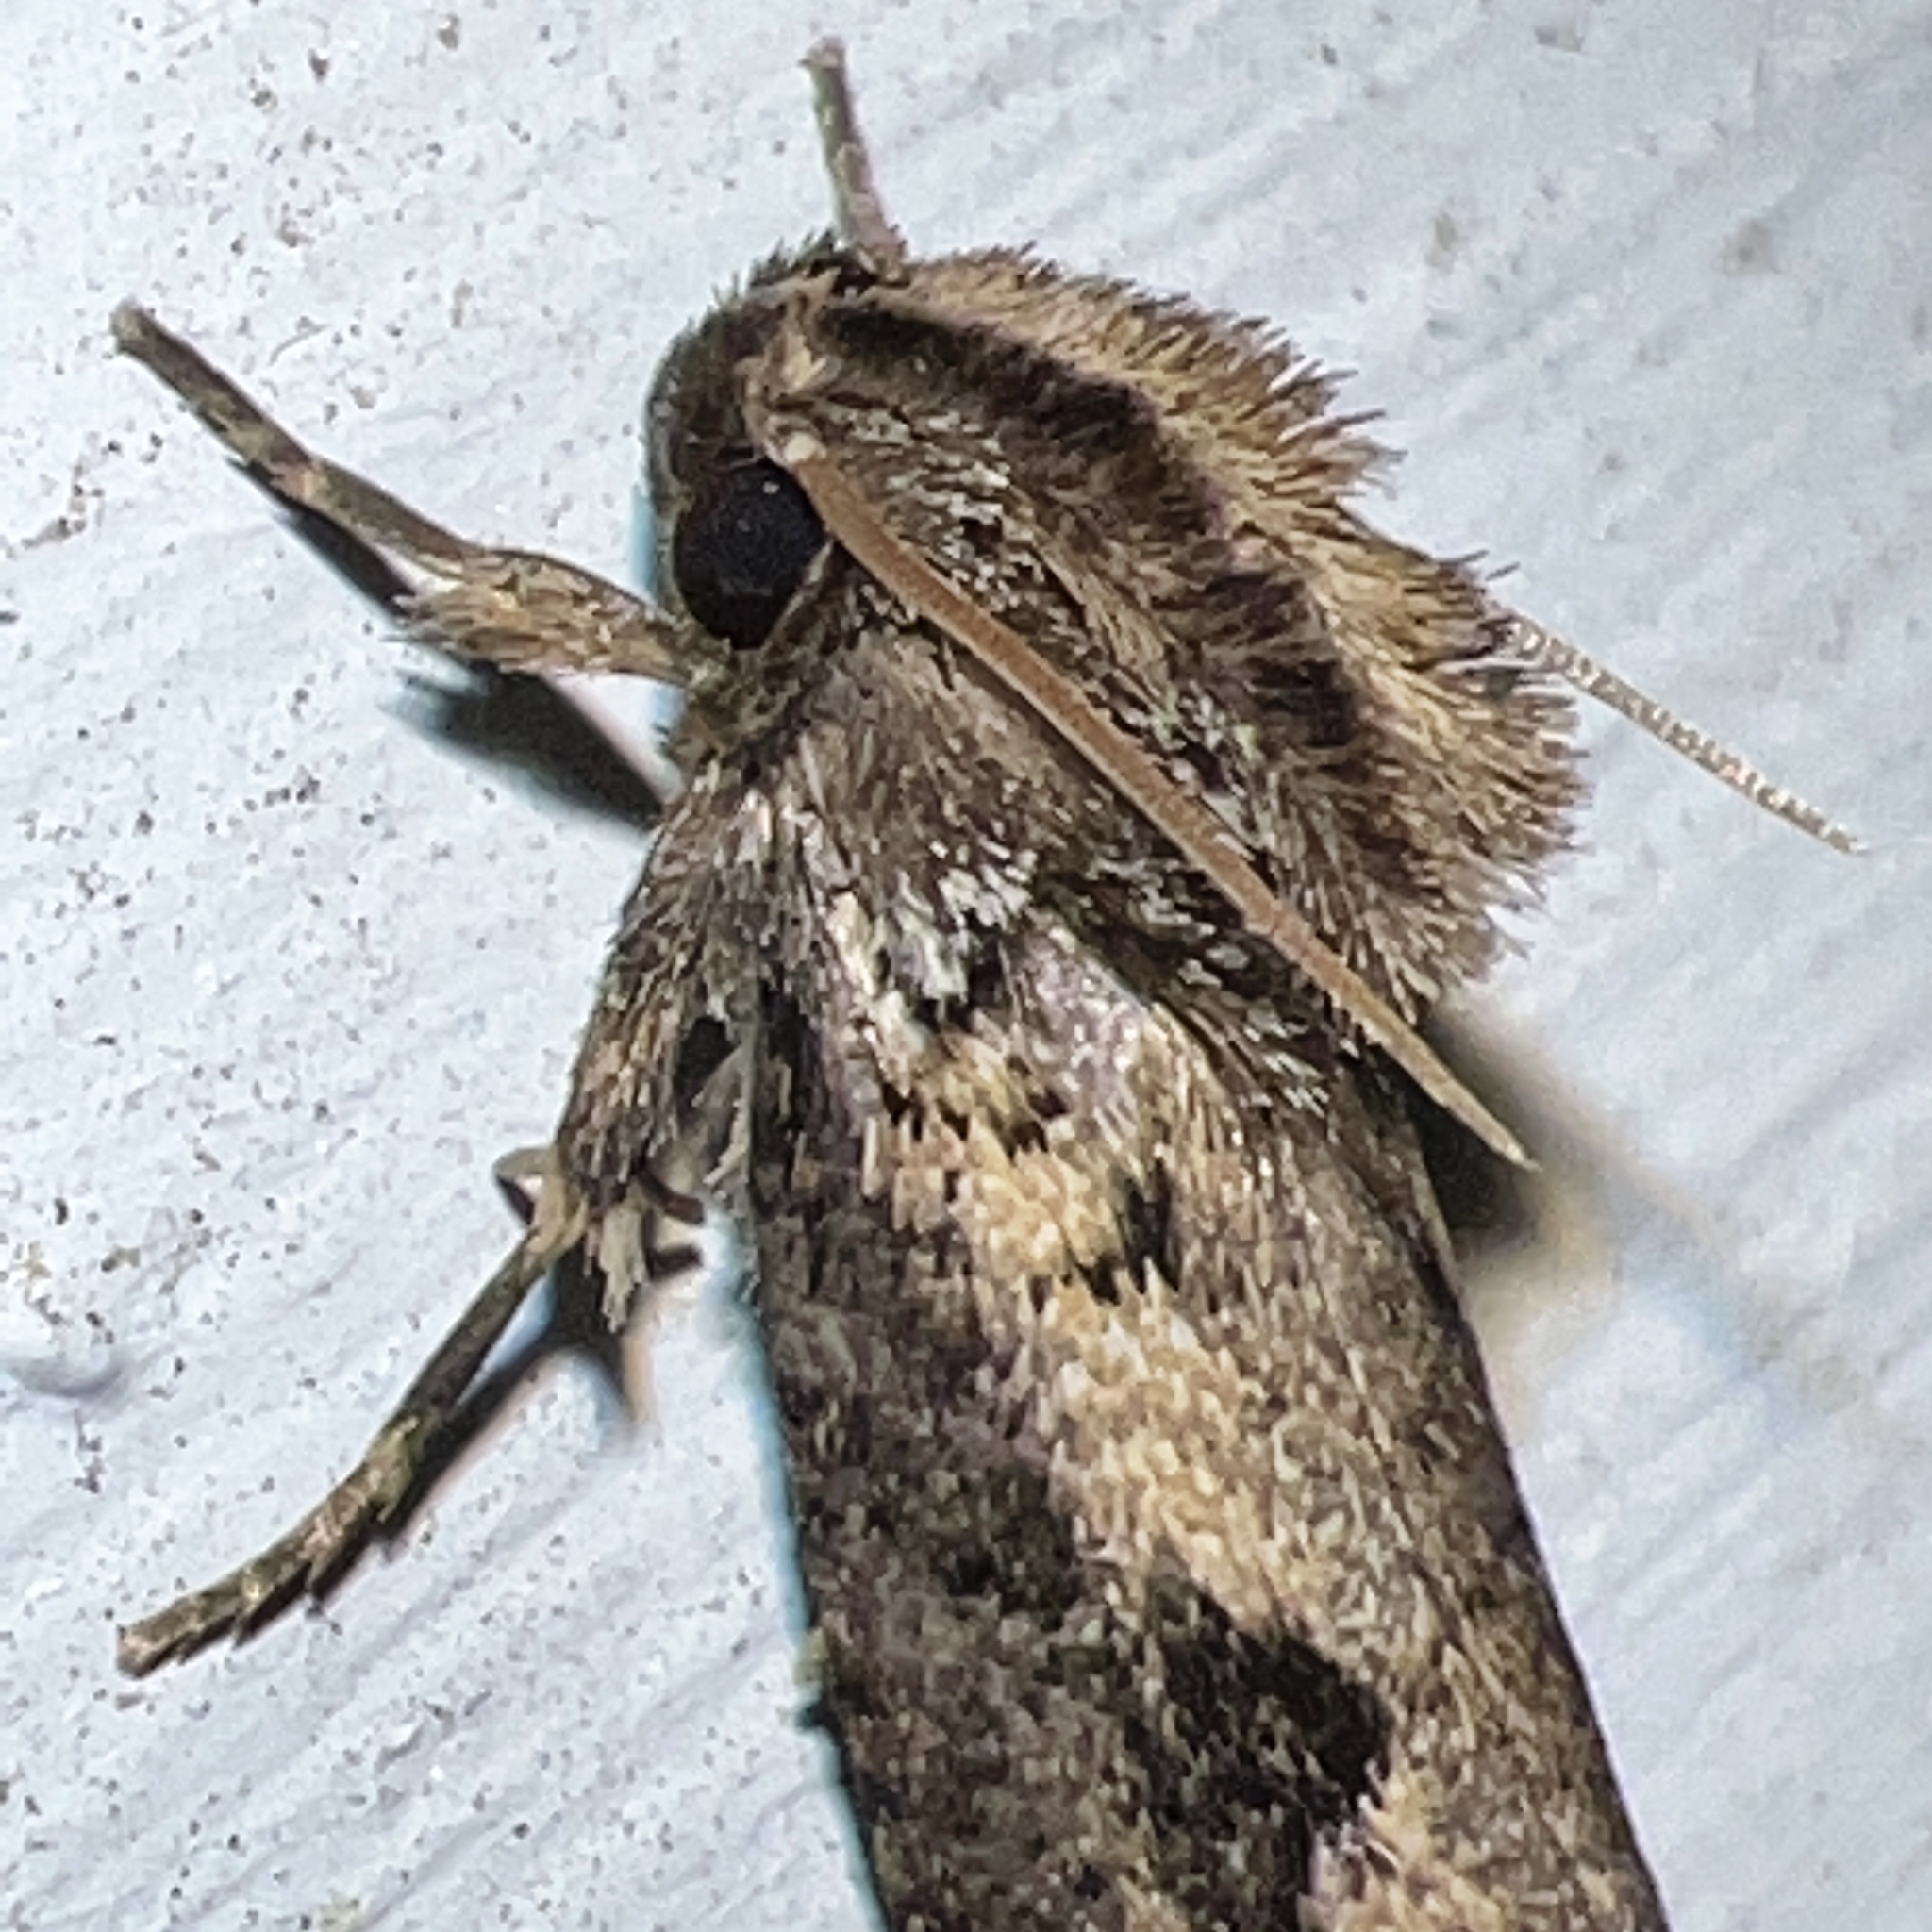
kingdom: Animalia
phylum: Arthropoda
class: Insecta
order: Lepidoptera
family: Tineidae
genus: Acrolophus
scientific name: Acrolophus popeanella
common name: Clemens' grass tubeworm moth
